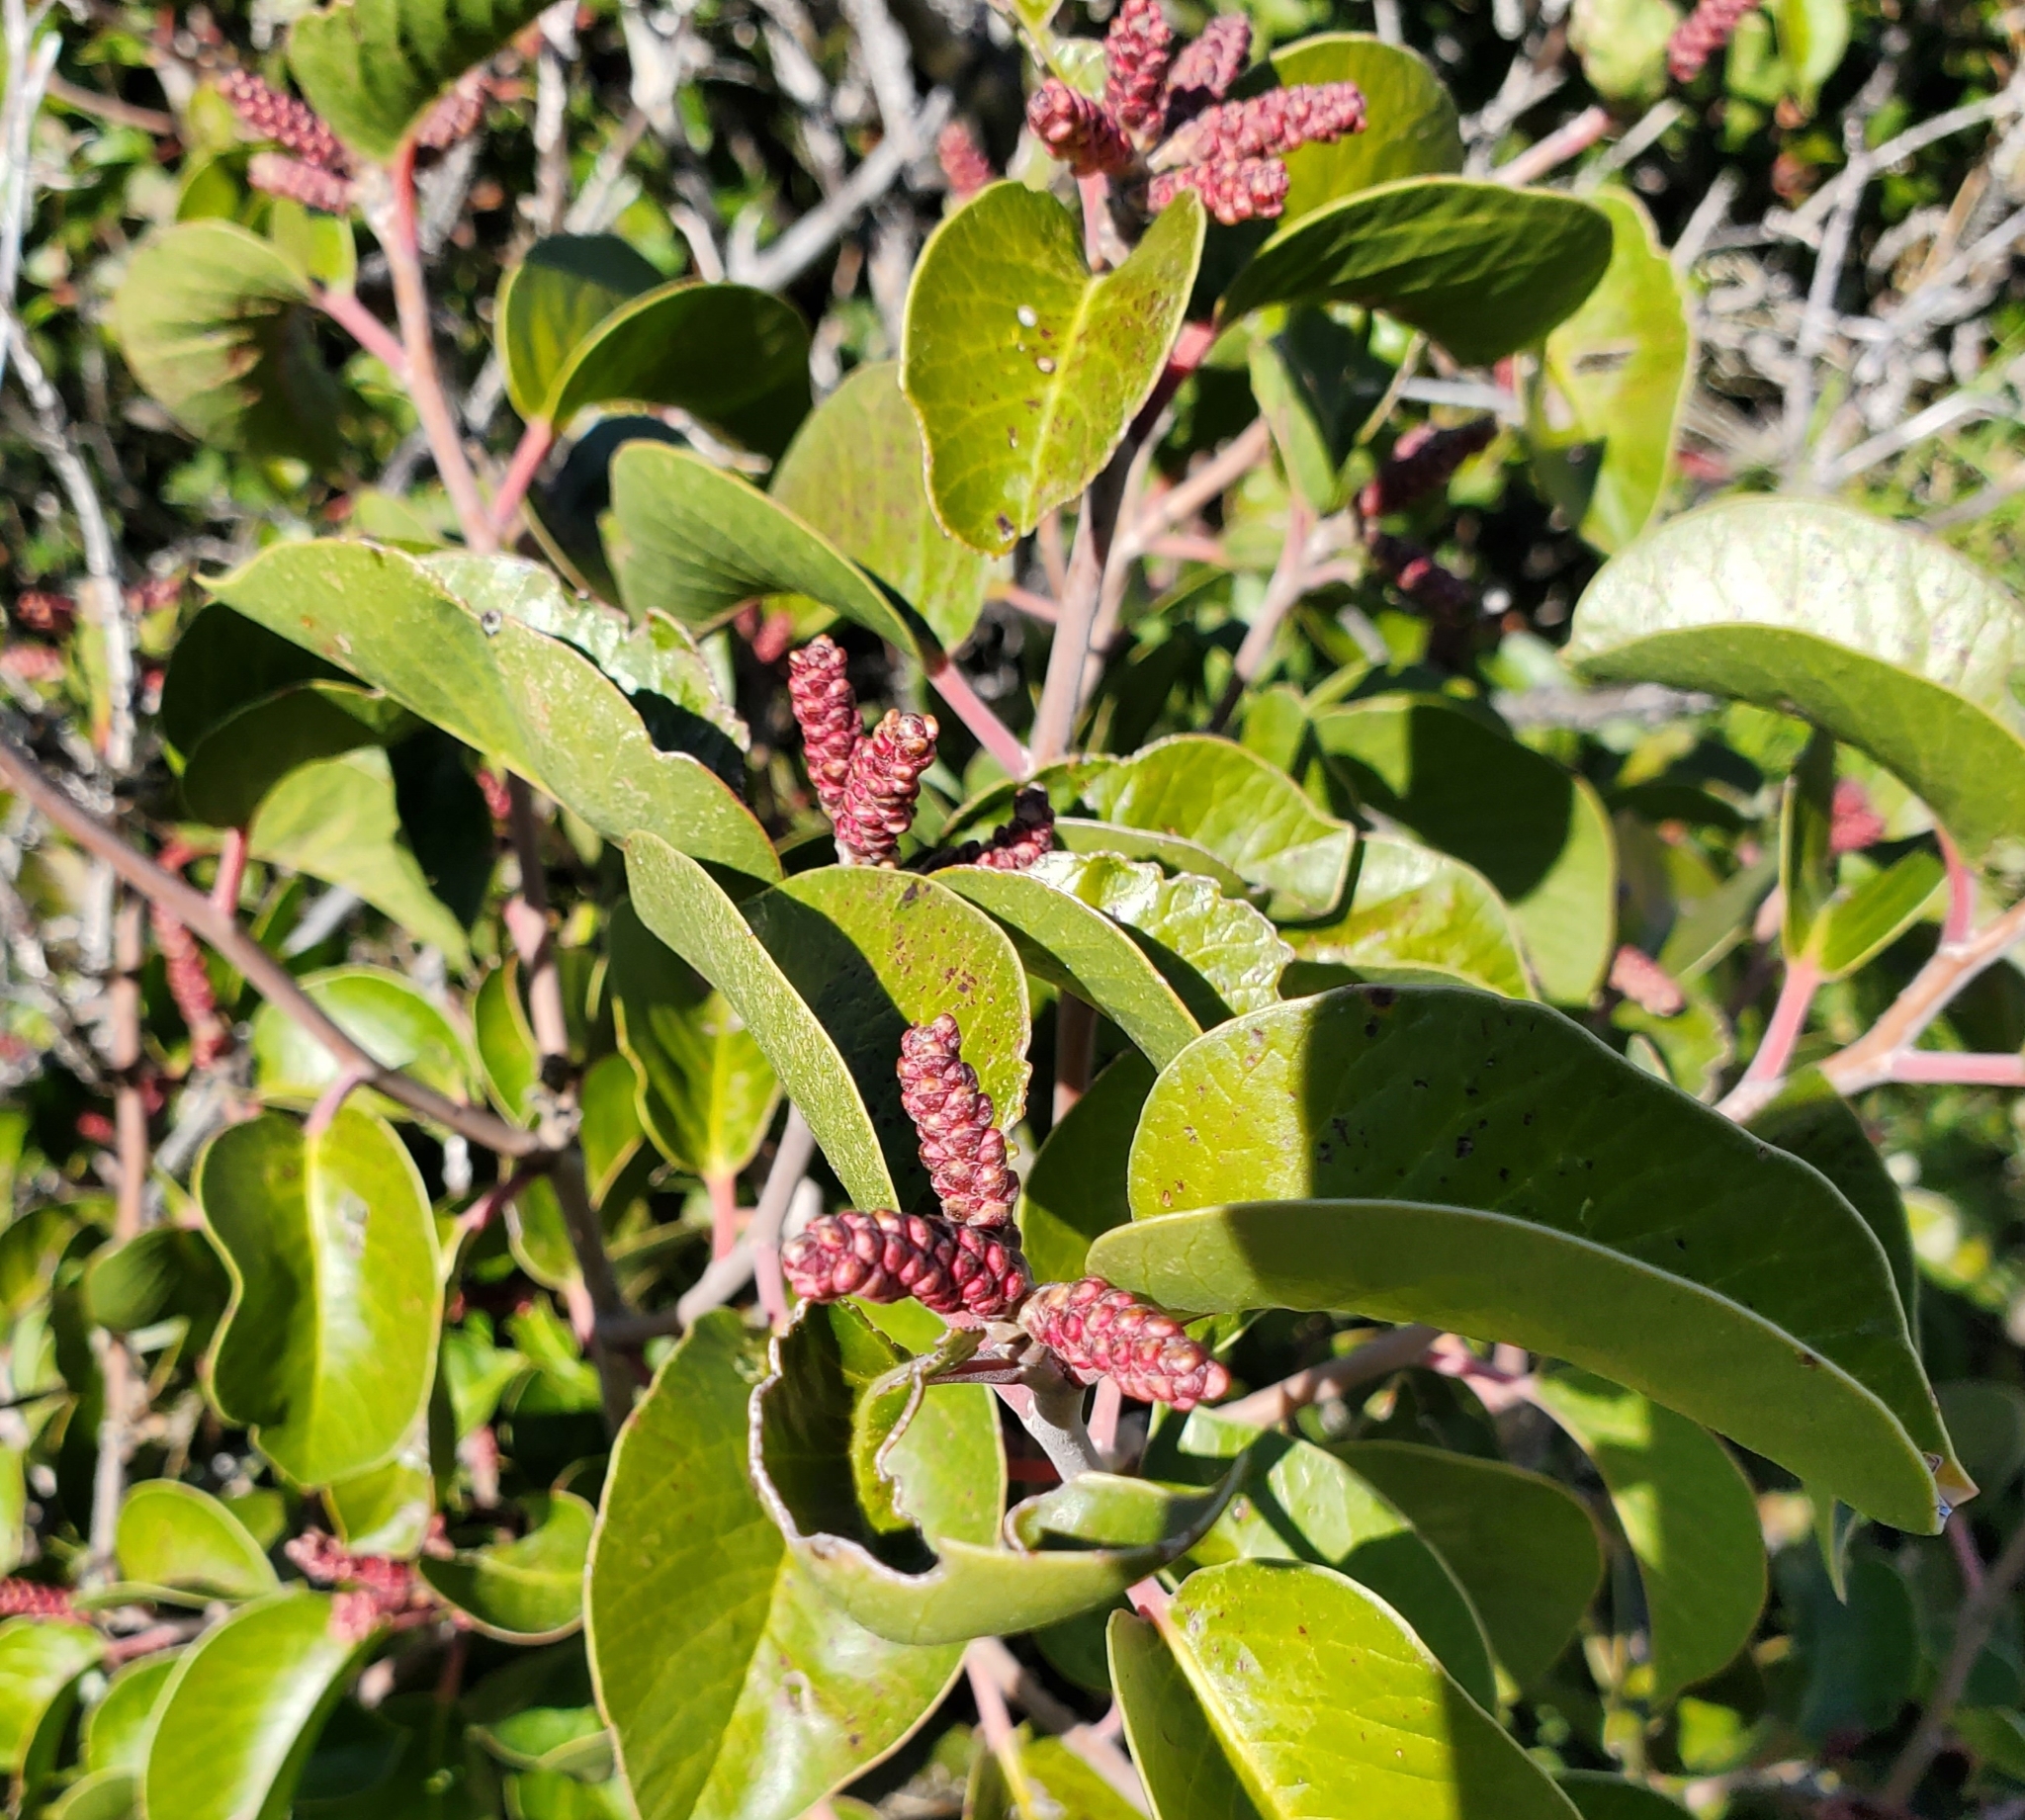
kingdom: Plantae
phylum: Tracheophyta
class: Magnoliopsida
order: Sapindales
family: Anacardiaceae
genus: Rhus
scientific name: Rhus ovata
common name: Sugar sumac
